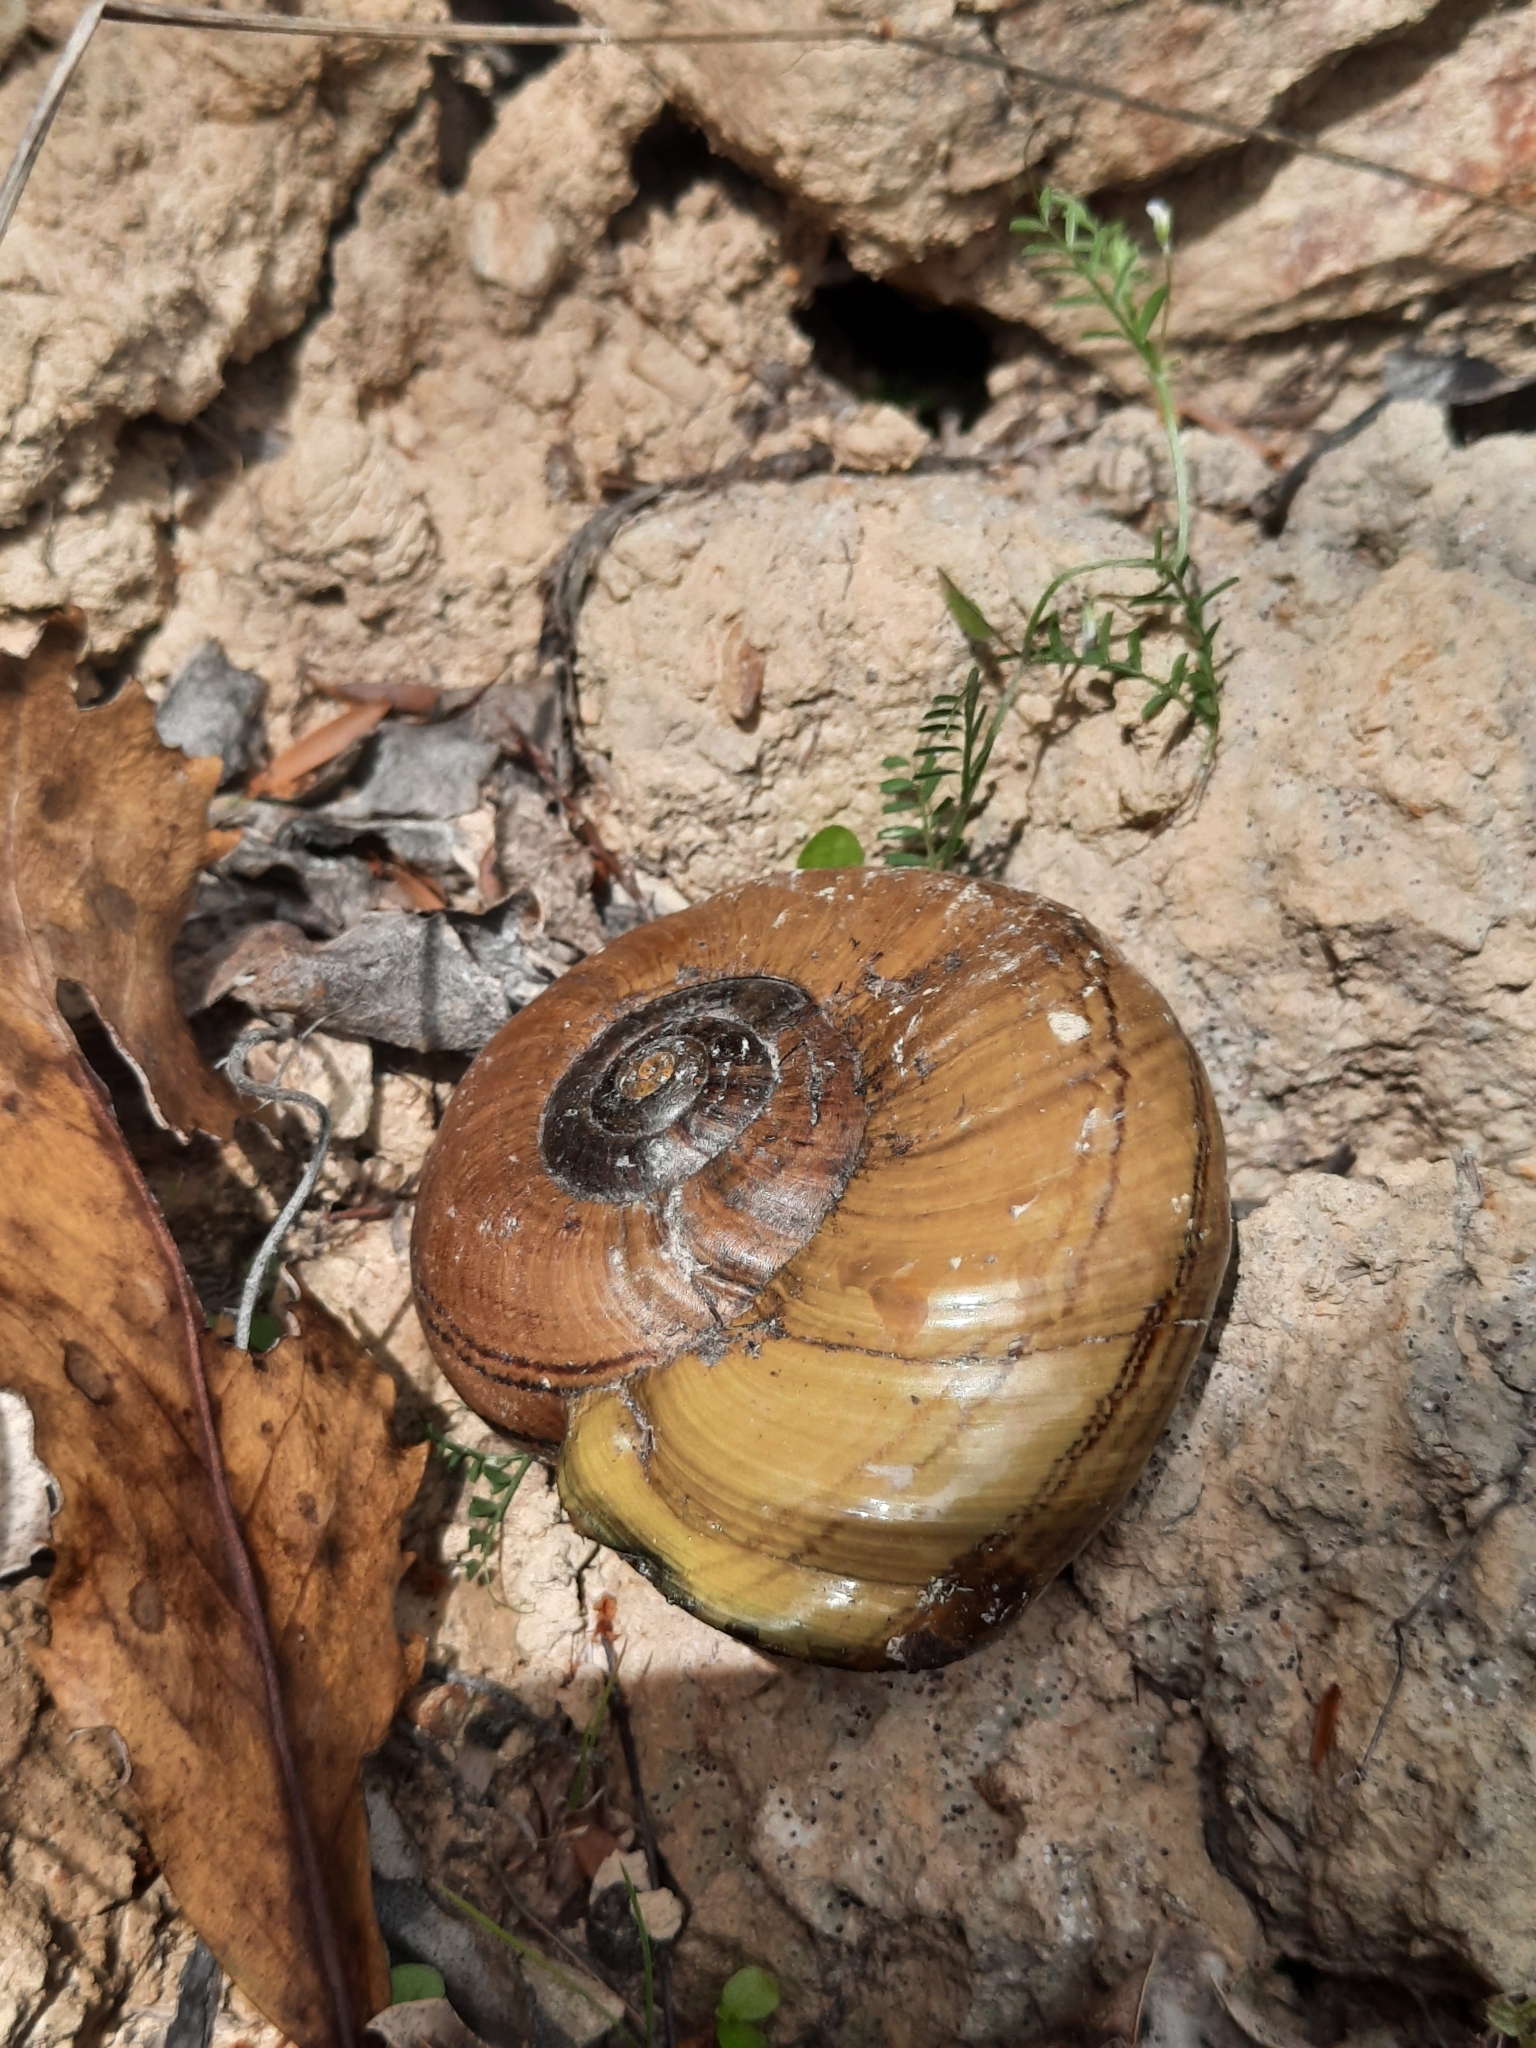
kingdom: Animalia
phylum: Mollusca
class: Gastropoda
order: Stylommatophora
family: Rhytididae
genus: Powelliphanta
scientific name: Powelliphanta hochstetteri
